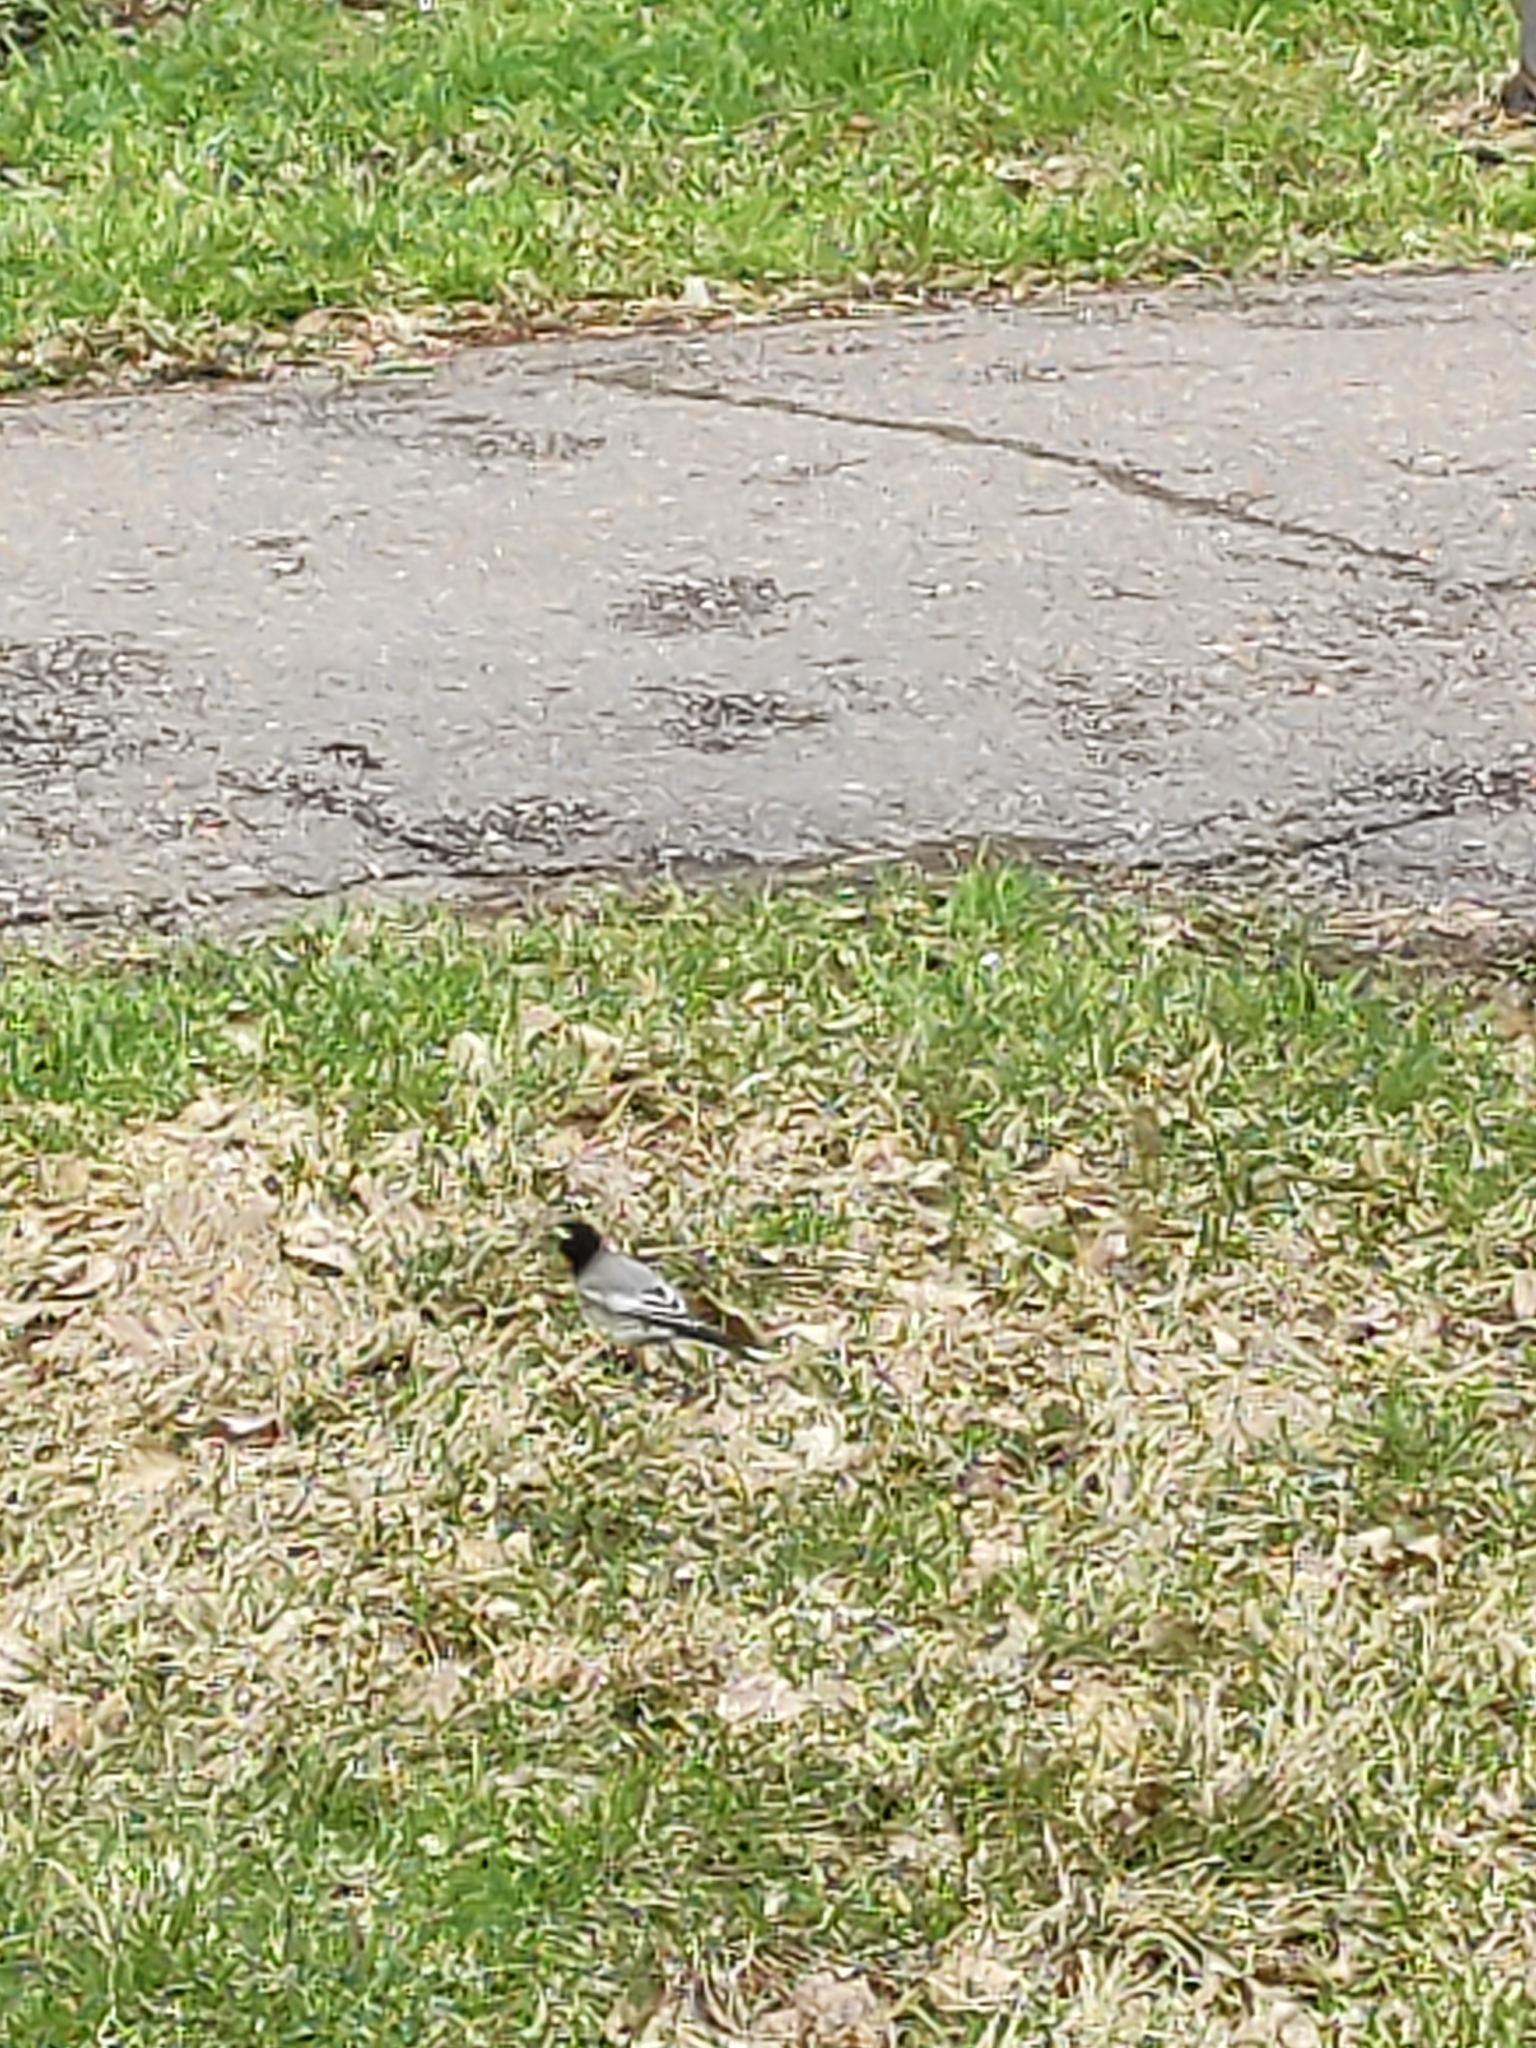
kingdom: Animalia
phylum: Chordata
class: Aves
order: Passeriformes
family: Motacillidae
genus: Motacilla
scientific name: Motacilla alba
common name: White wagtail
